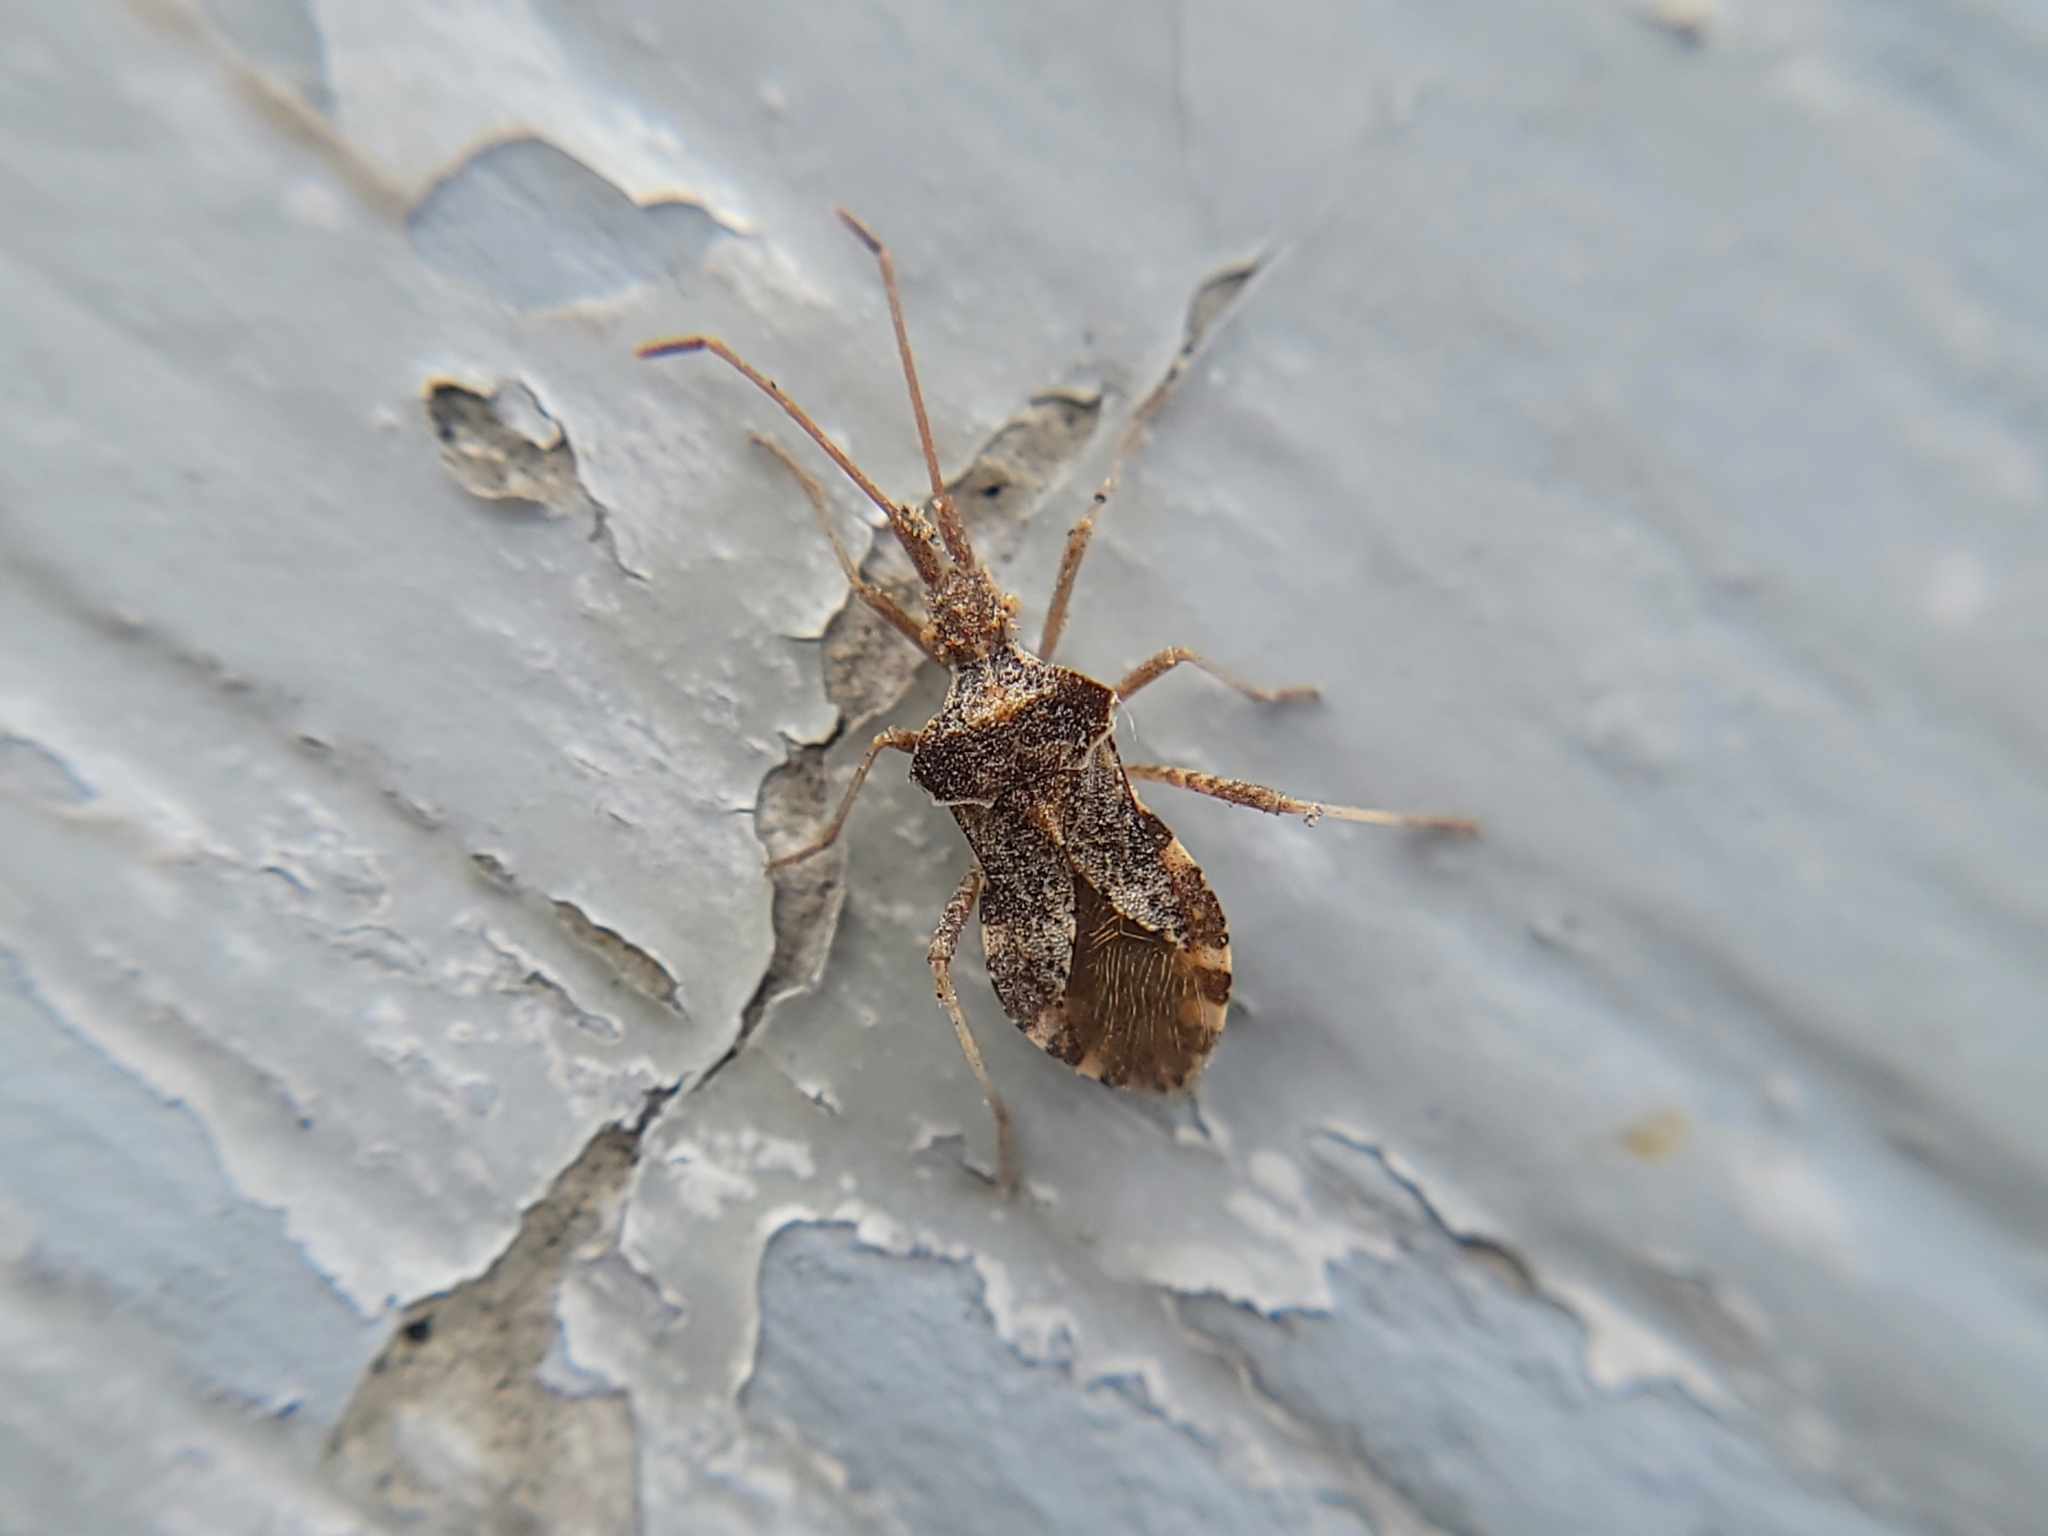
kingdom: Animalia
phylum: Arthropoda
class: Insecta
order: Hemiptera
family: Coreidae
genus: Centrocoris
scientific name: Centrocoris volxemi
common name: Leaf-footed bug
